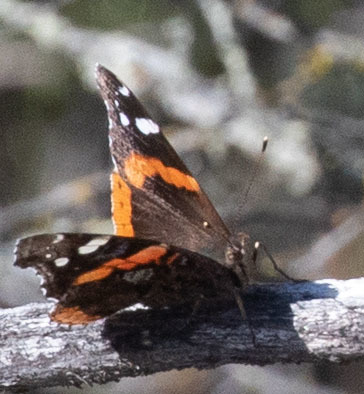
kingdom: Animalia
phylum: Arthropoda
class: Insecta
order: Lepidoptera
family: Nymphalidae
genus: Vanessa
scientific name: Vanessa atalanta
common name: Red admiral
